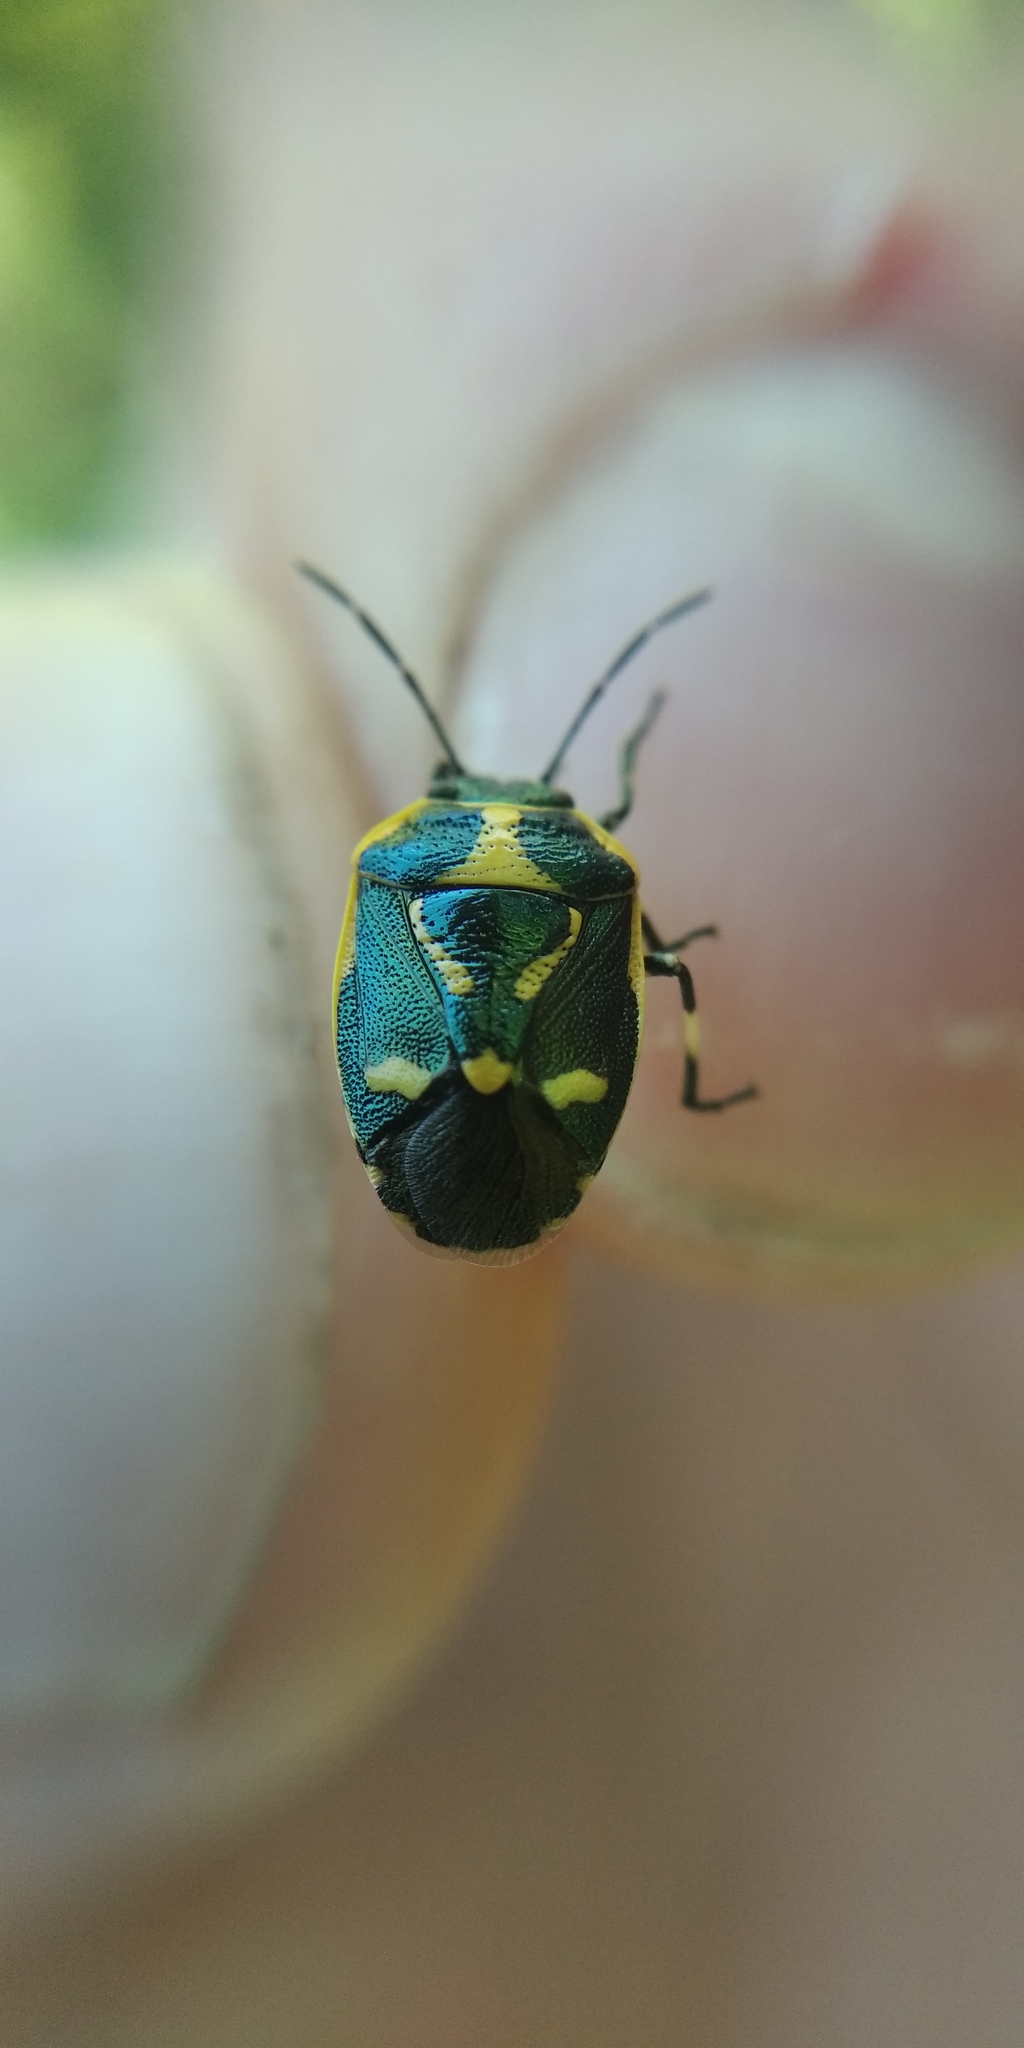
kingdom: Animalia
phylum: Arthropoda
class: Insecta
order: Hemiptera
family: Pentatomidae
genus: Eurydema
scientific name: Eurydema oleracea
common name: Cabbage bug
